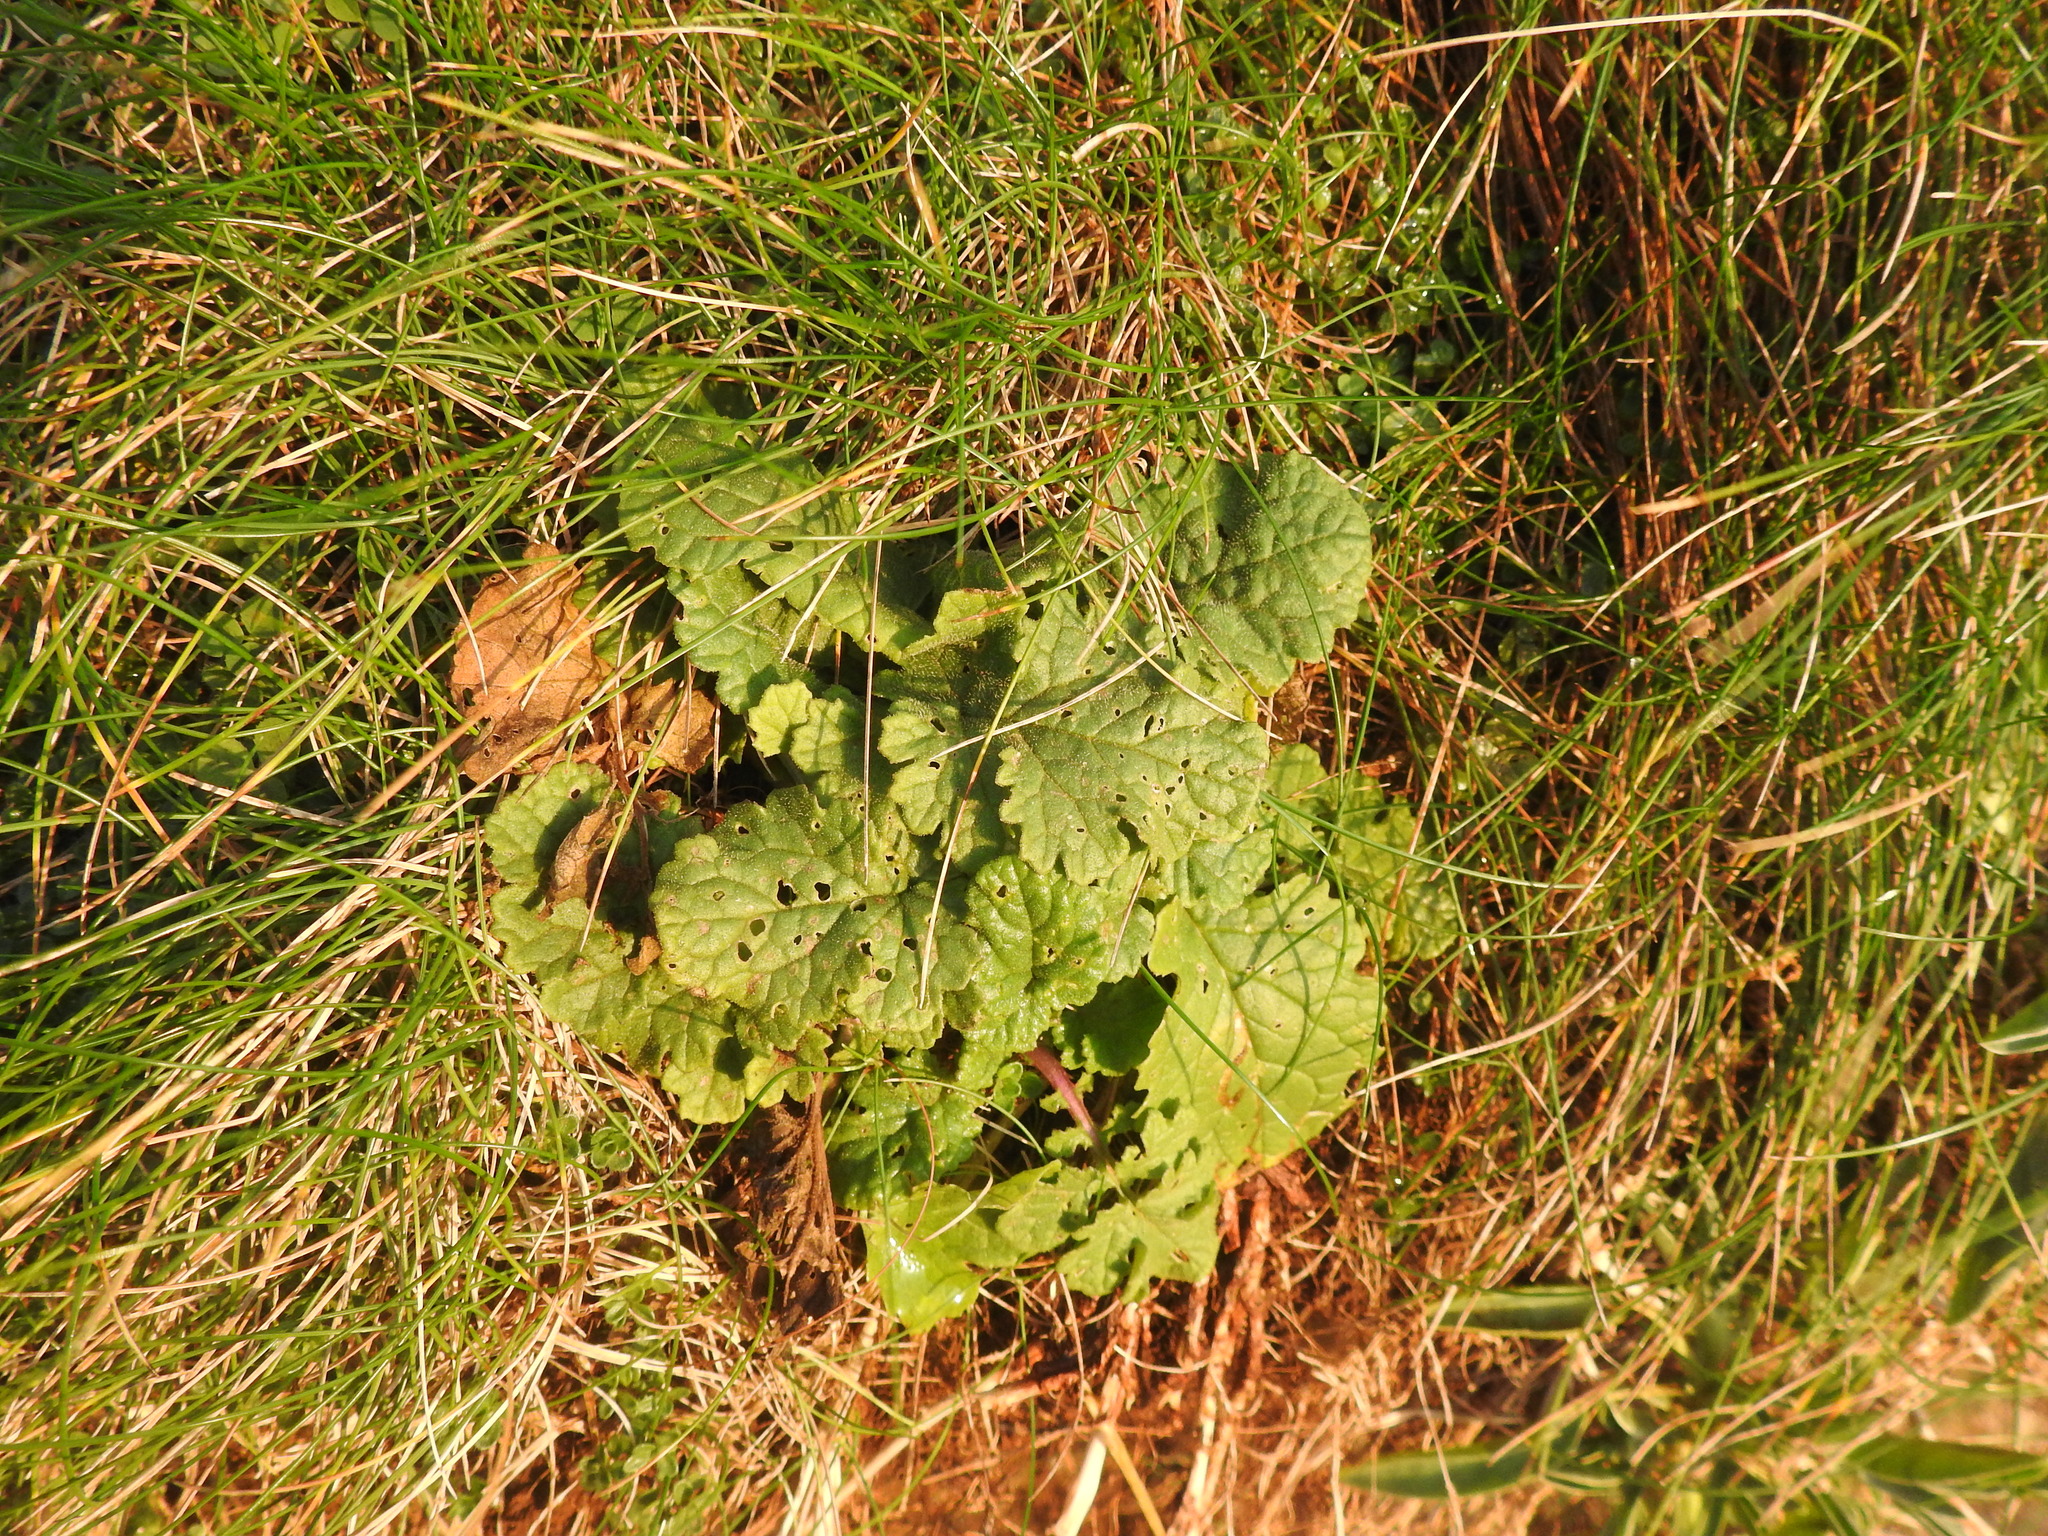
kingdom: Plantae
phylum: Tracheophyta
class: Magnoliopsida
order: Asterales
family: Asteraceae
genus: Jacobaea
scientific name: Jacobaea vulgaris
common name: Stinking willie
